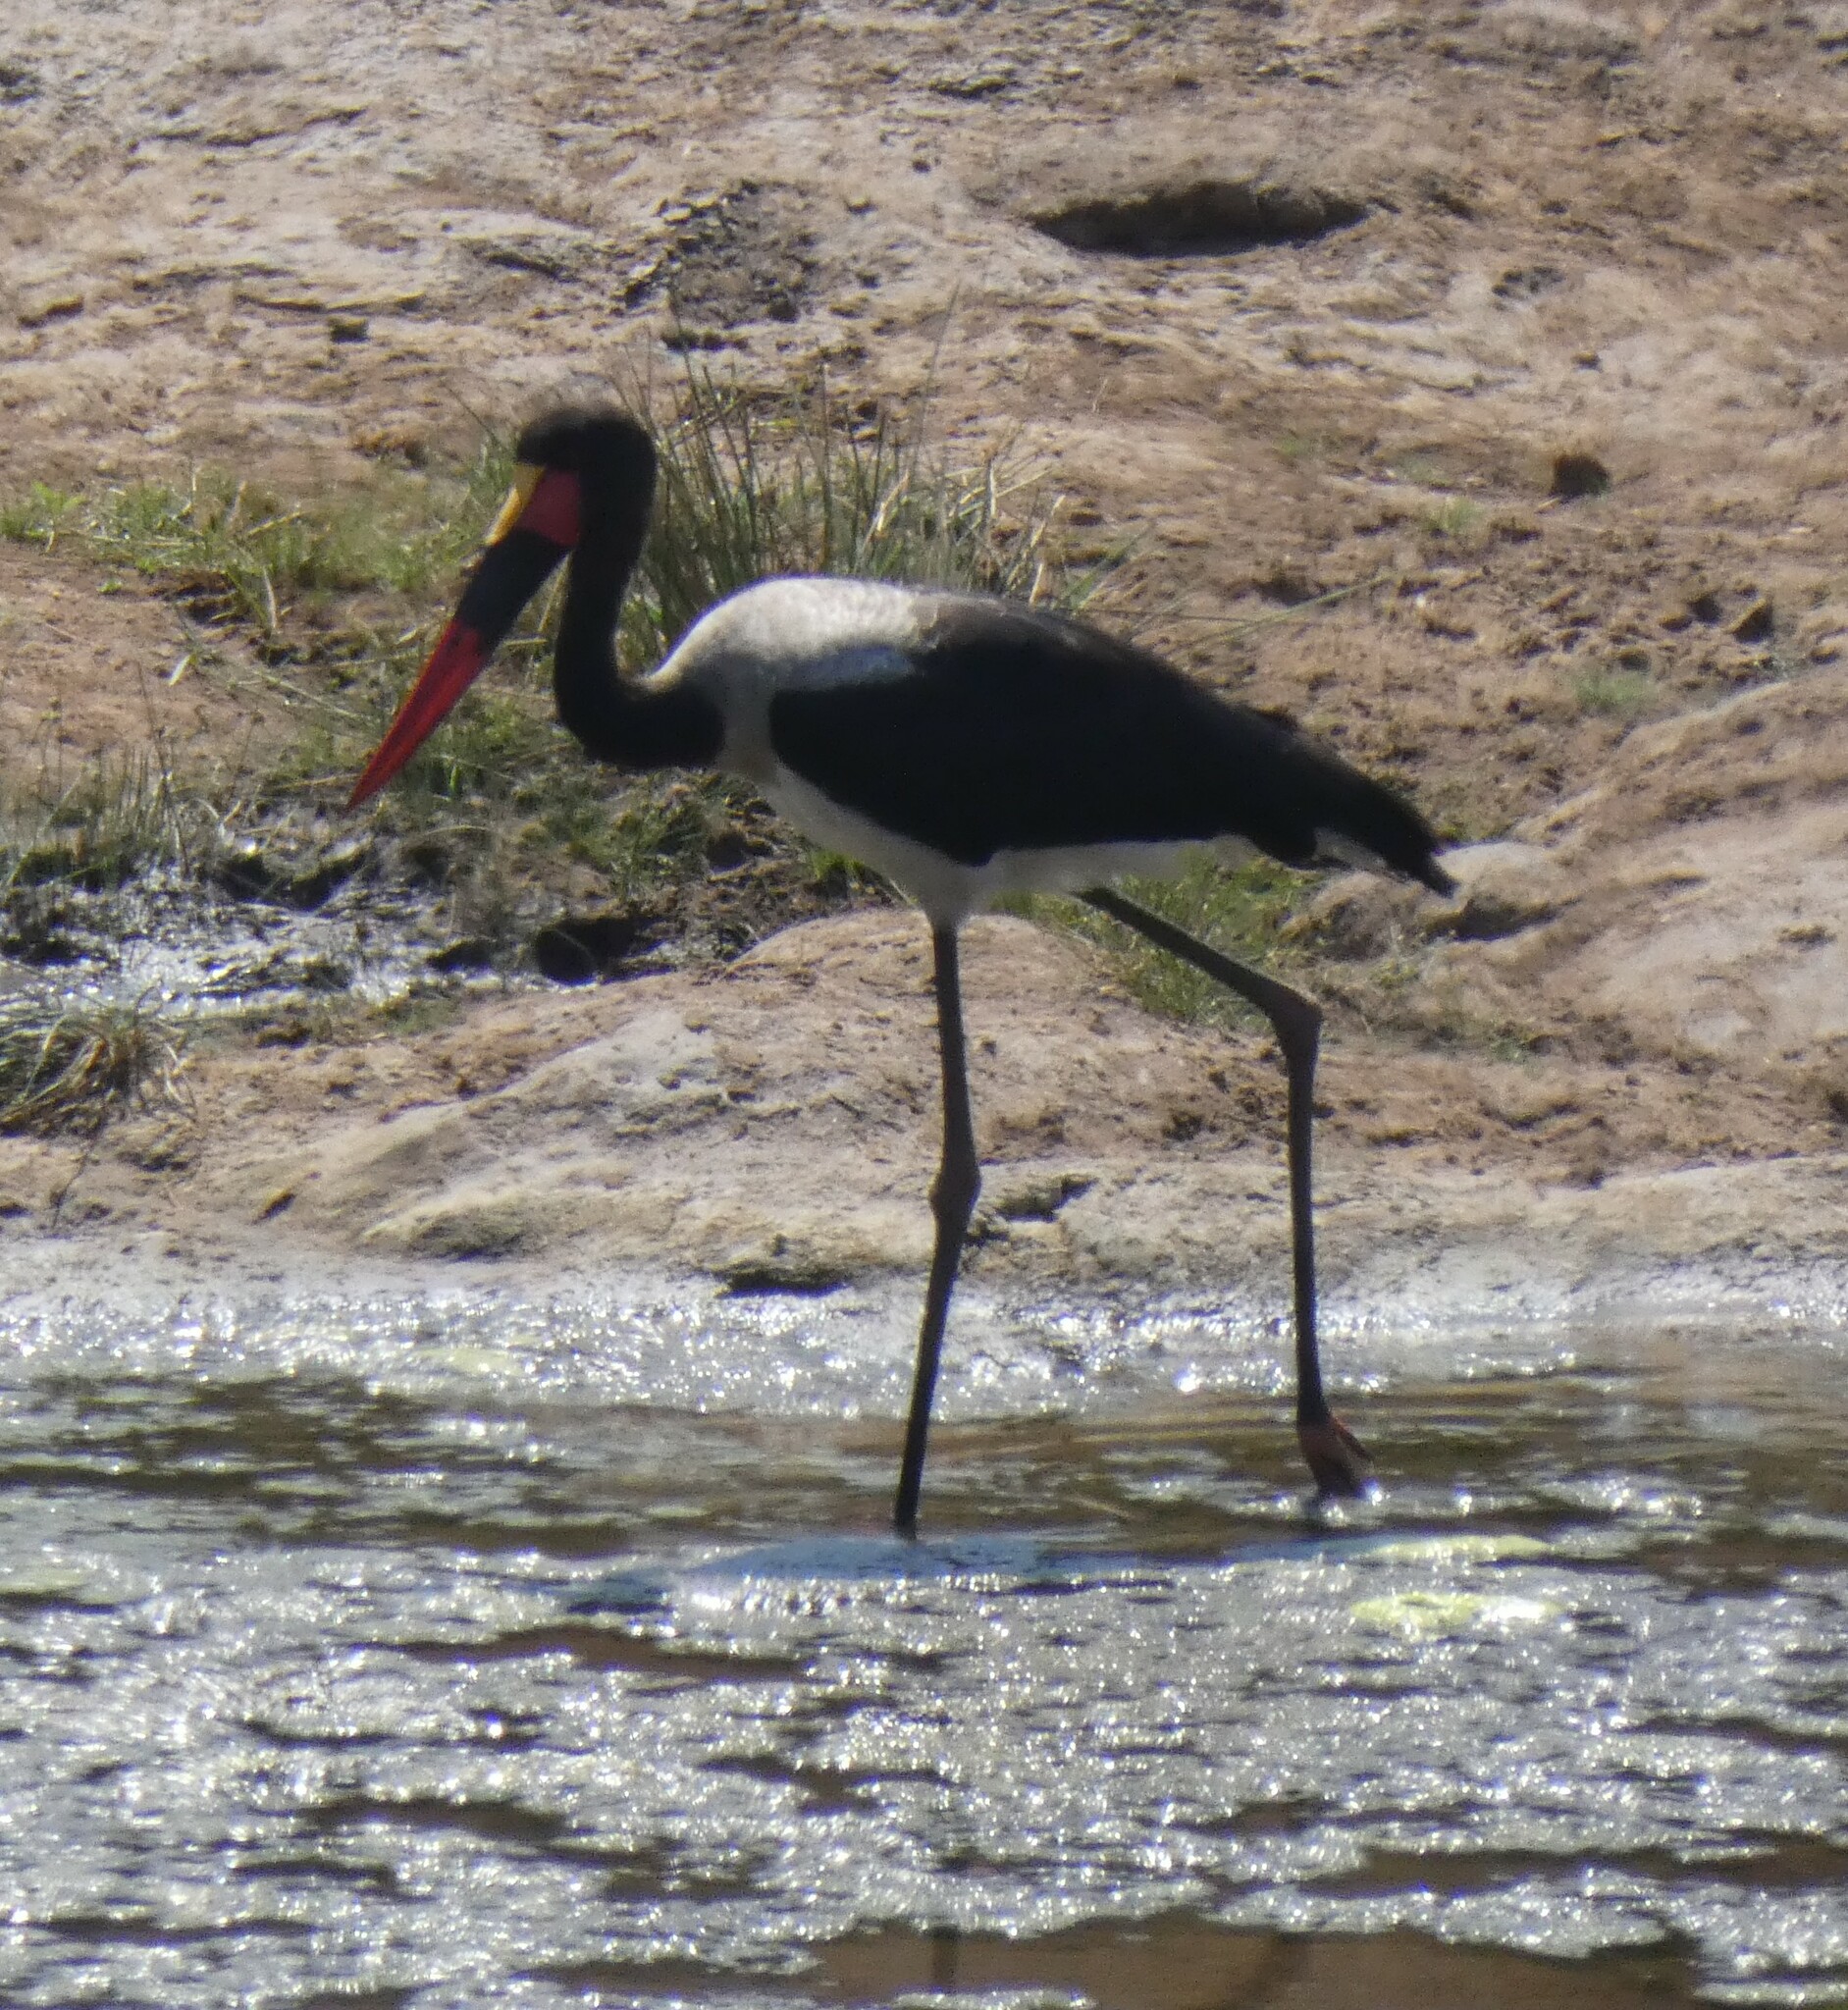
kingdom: Animalia
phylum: Chordata
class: Aves
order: Ciconiiformes
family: Ciconiidae
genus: Ephippiorhynchus
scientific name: Ephippiorhynchus senegalensis
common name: Saddle-billed stork
